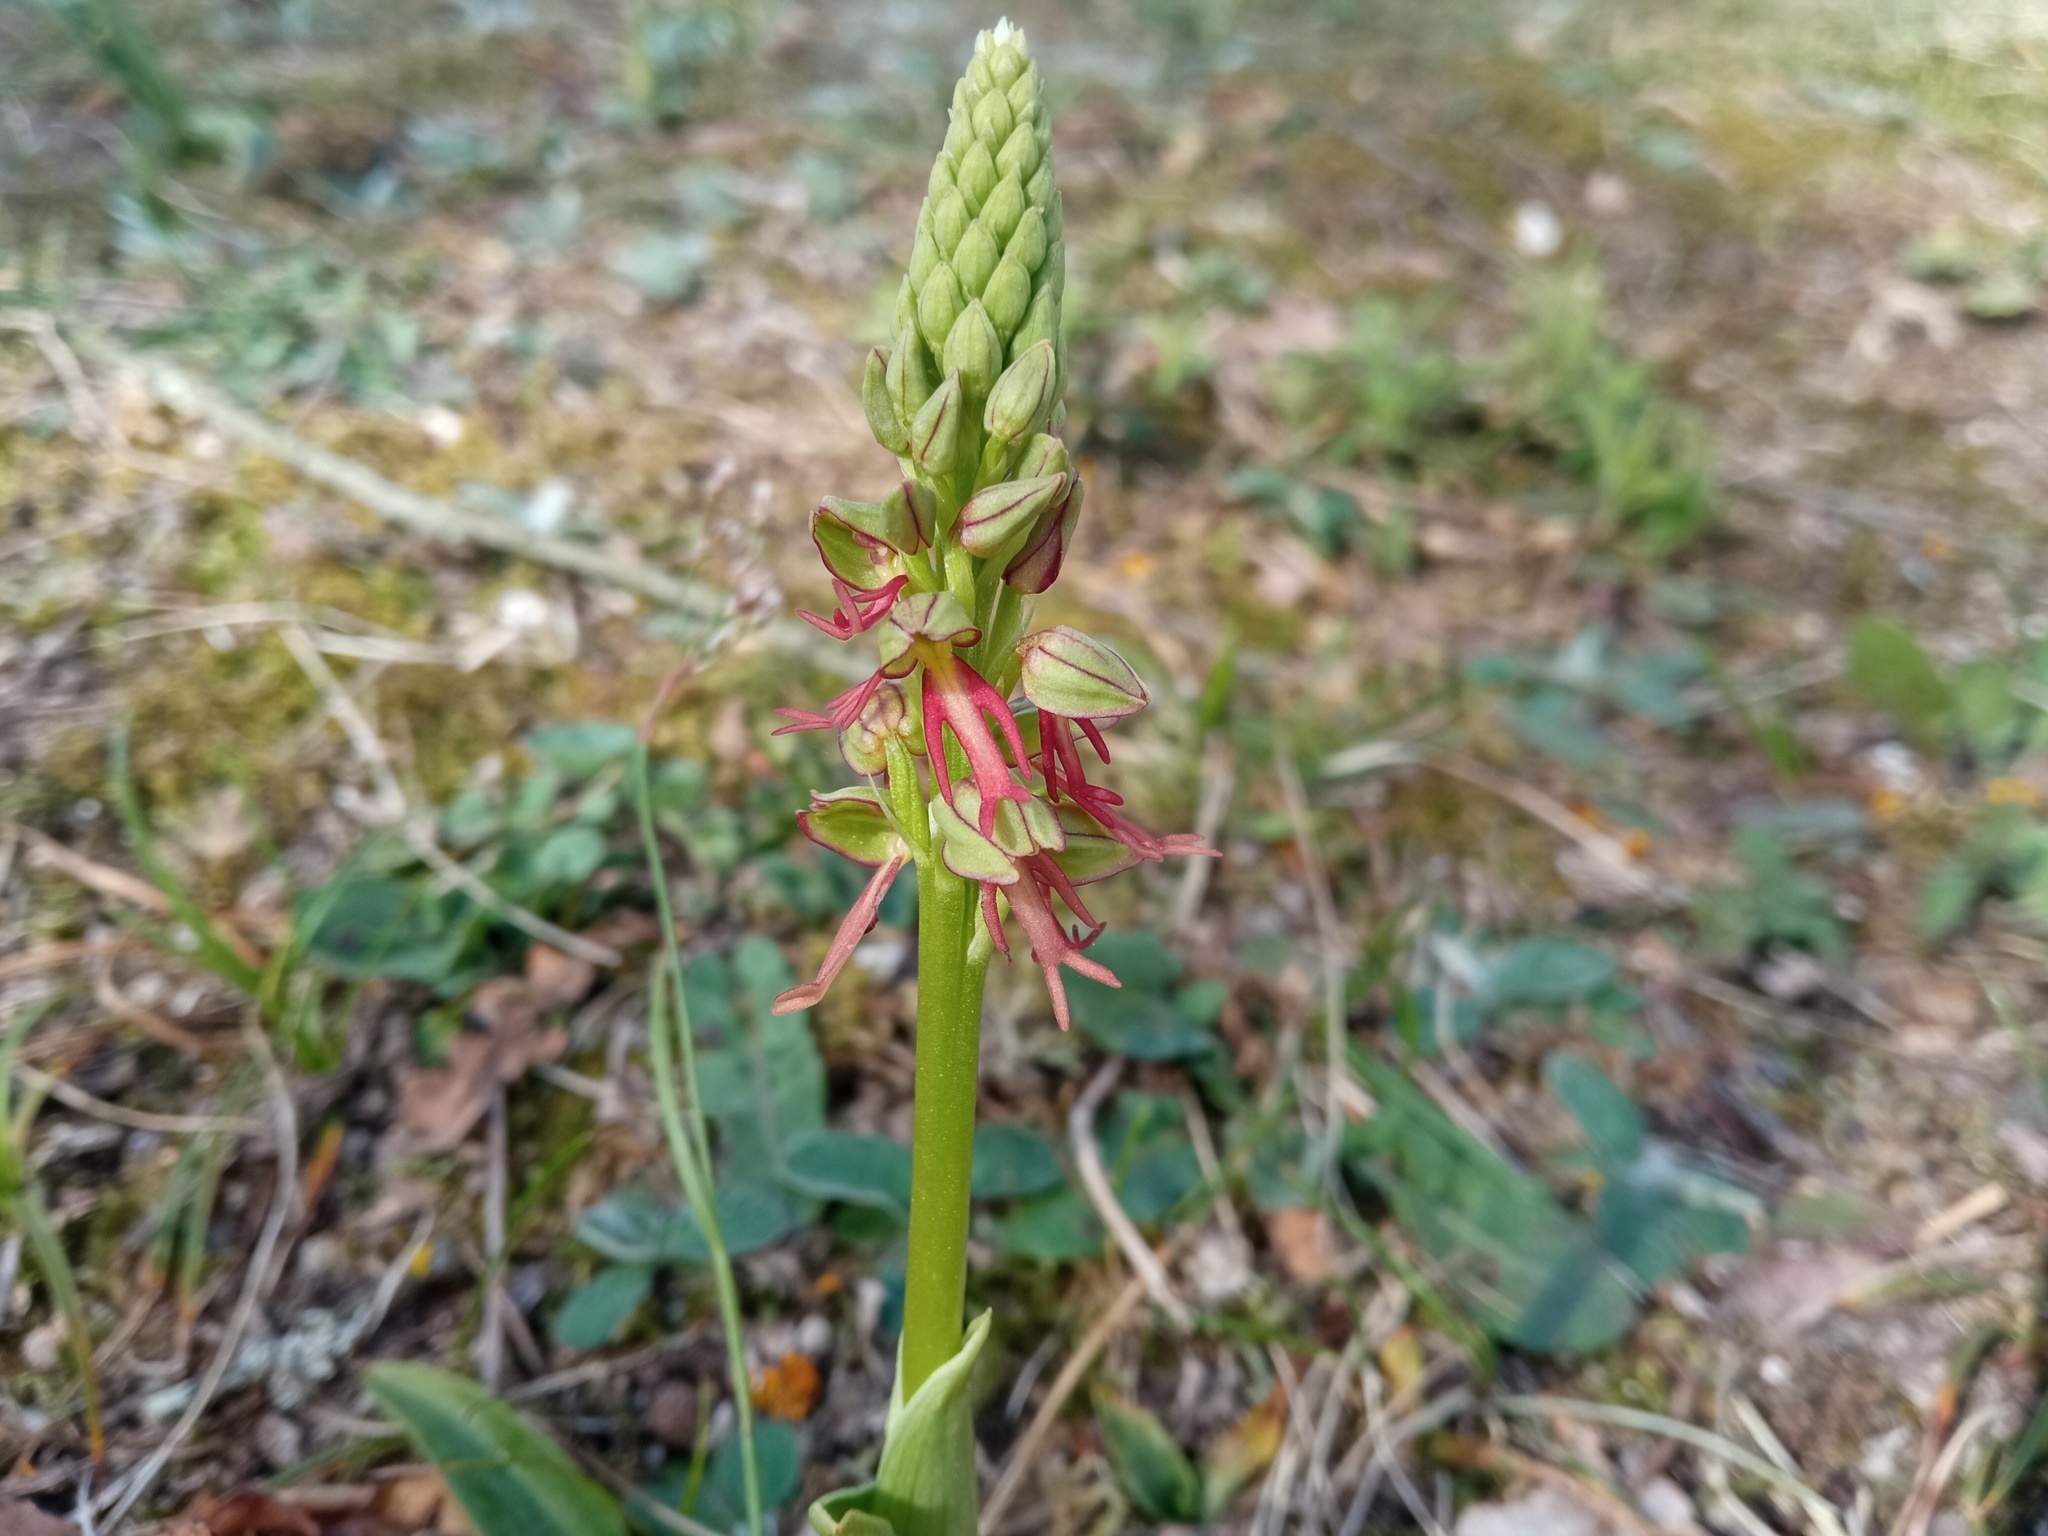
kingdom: Plantae
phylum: Tracheophyta
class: Liliopsida
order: Asparagales
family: Orchidaceae
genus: Orchis
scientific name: Orchis anthropophora
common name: Man orchid
